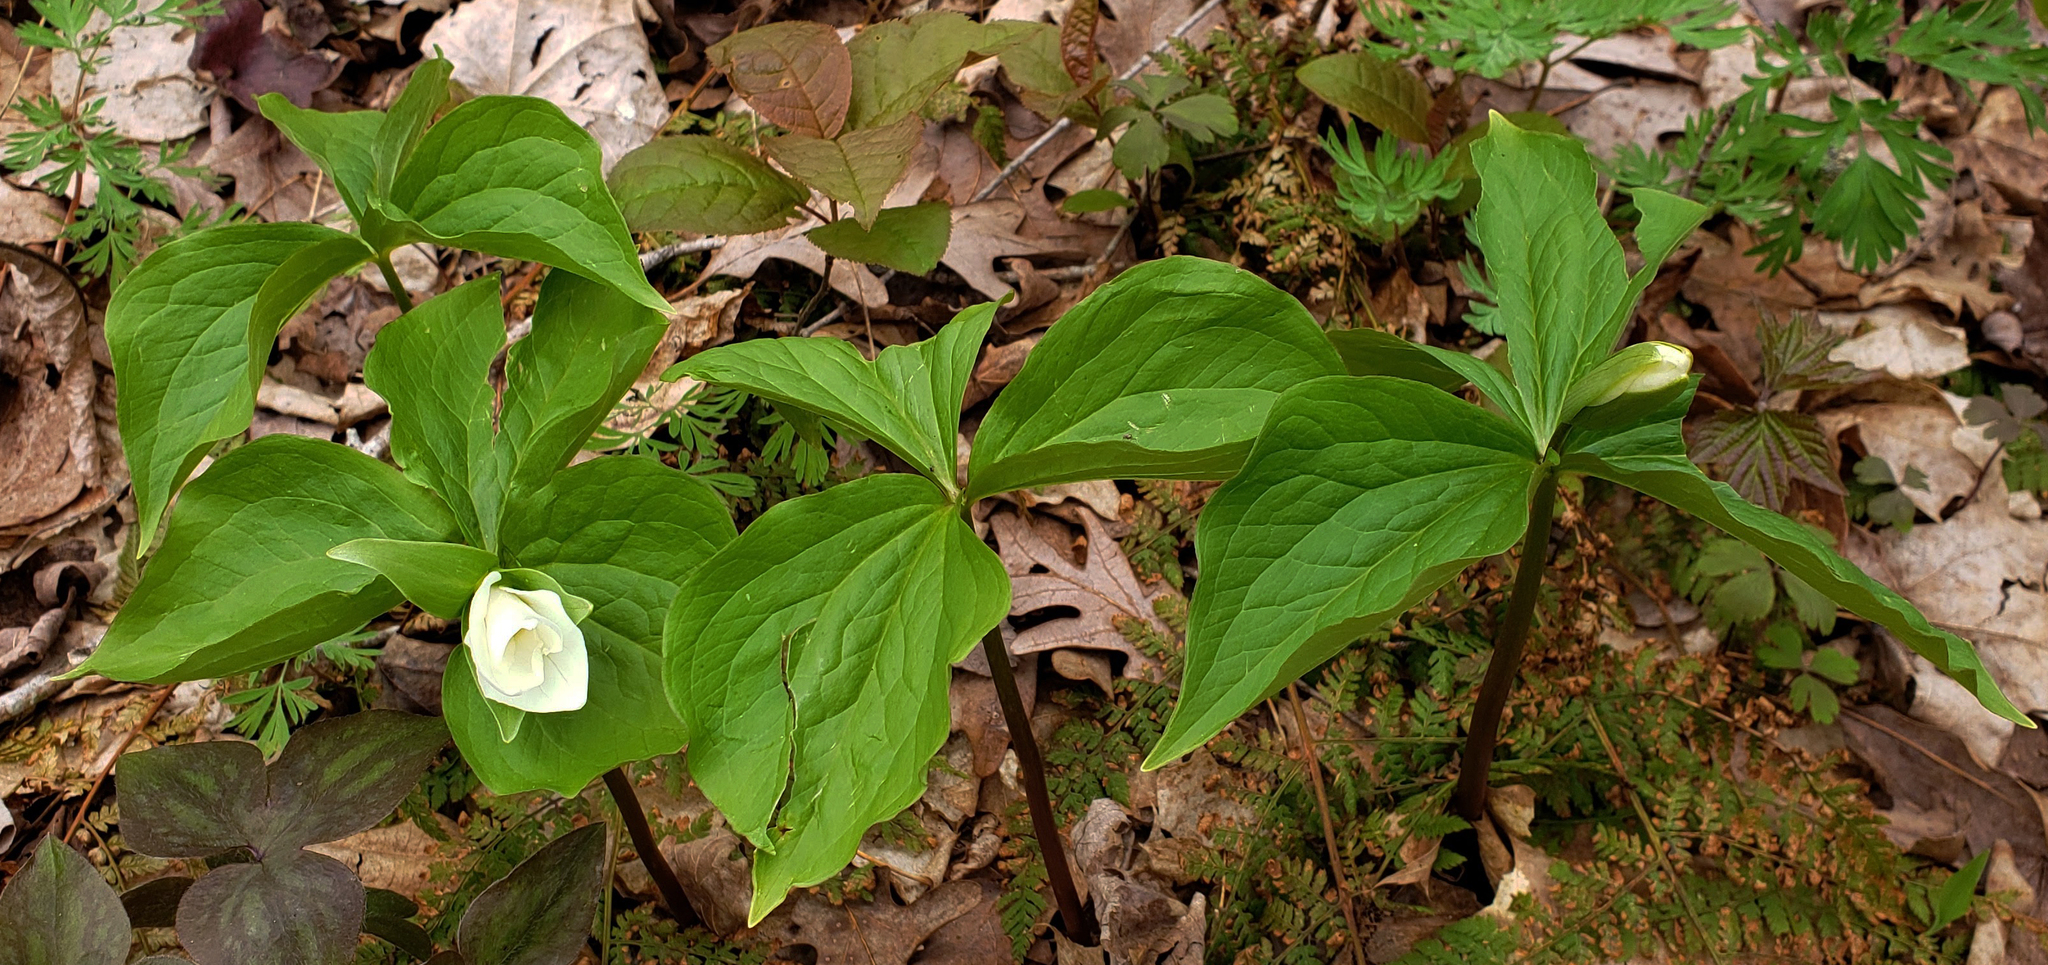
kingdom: Plantae
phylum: Tracheophyta
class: Liliopsida
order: Liliales
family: Melanthiaceae
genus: Trillium
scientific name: Trillium grandiflorum
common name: Great white trillium
